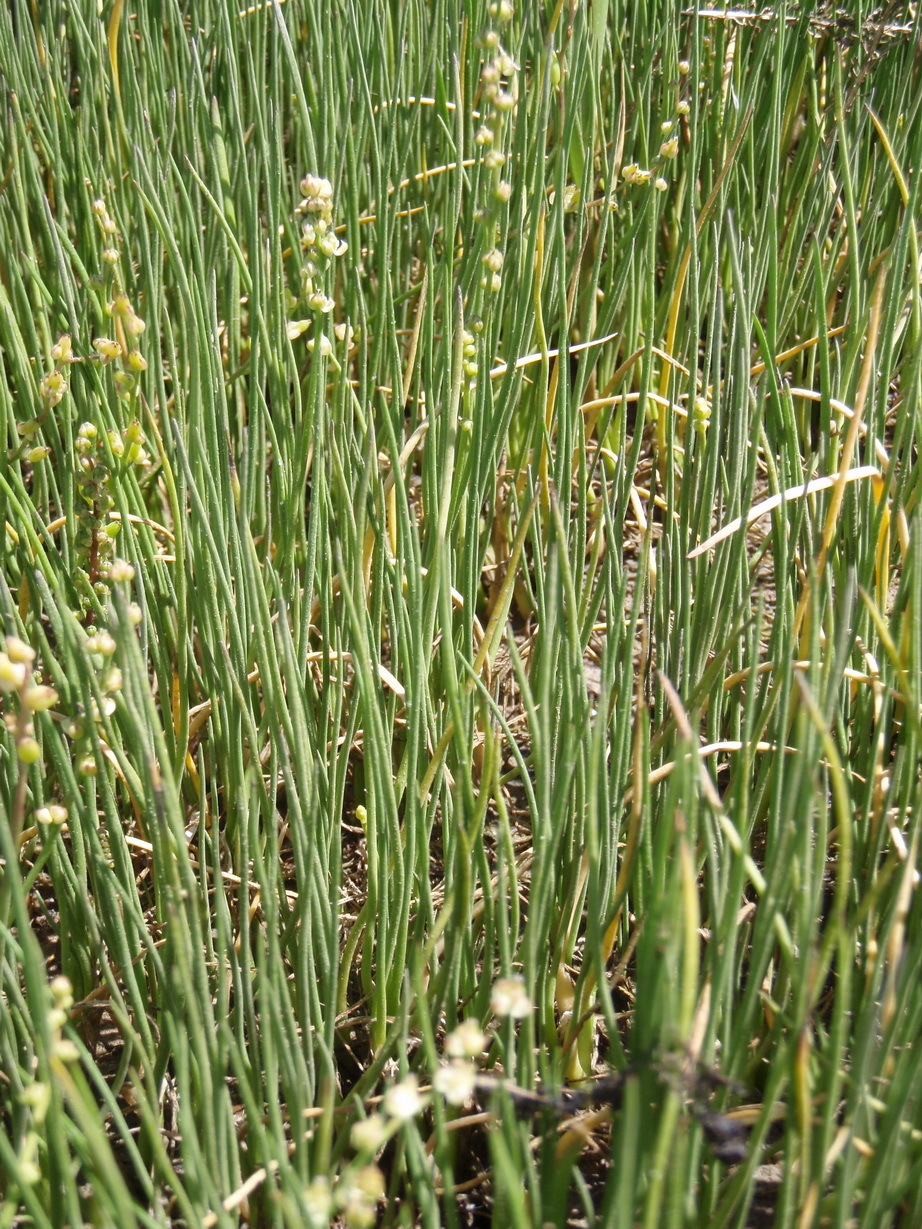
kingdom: Plantae
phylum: Tracheophyta
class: Liliopsida
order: Alismatales
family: Juncaginaceae
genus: Triglochin
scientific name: Triglochin bulbosa
